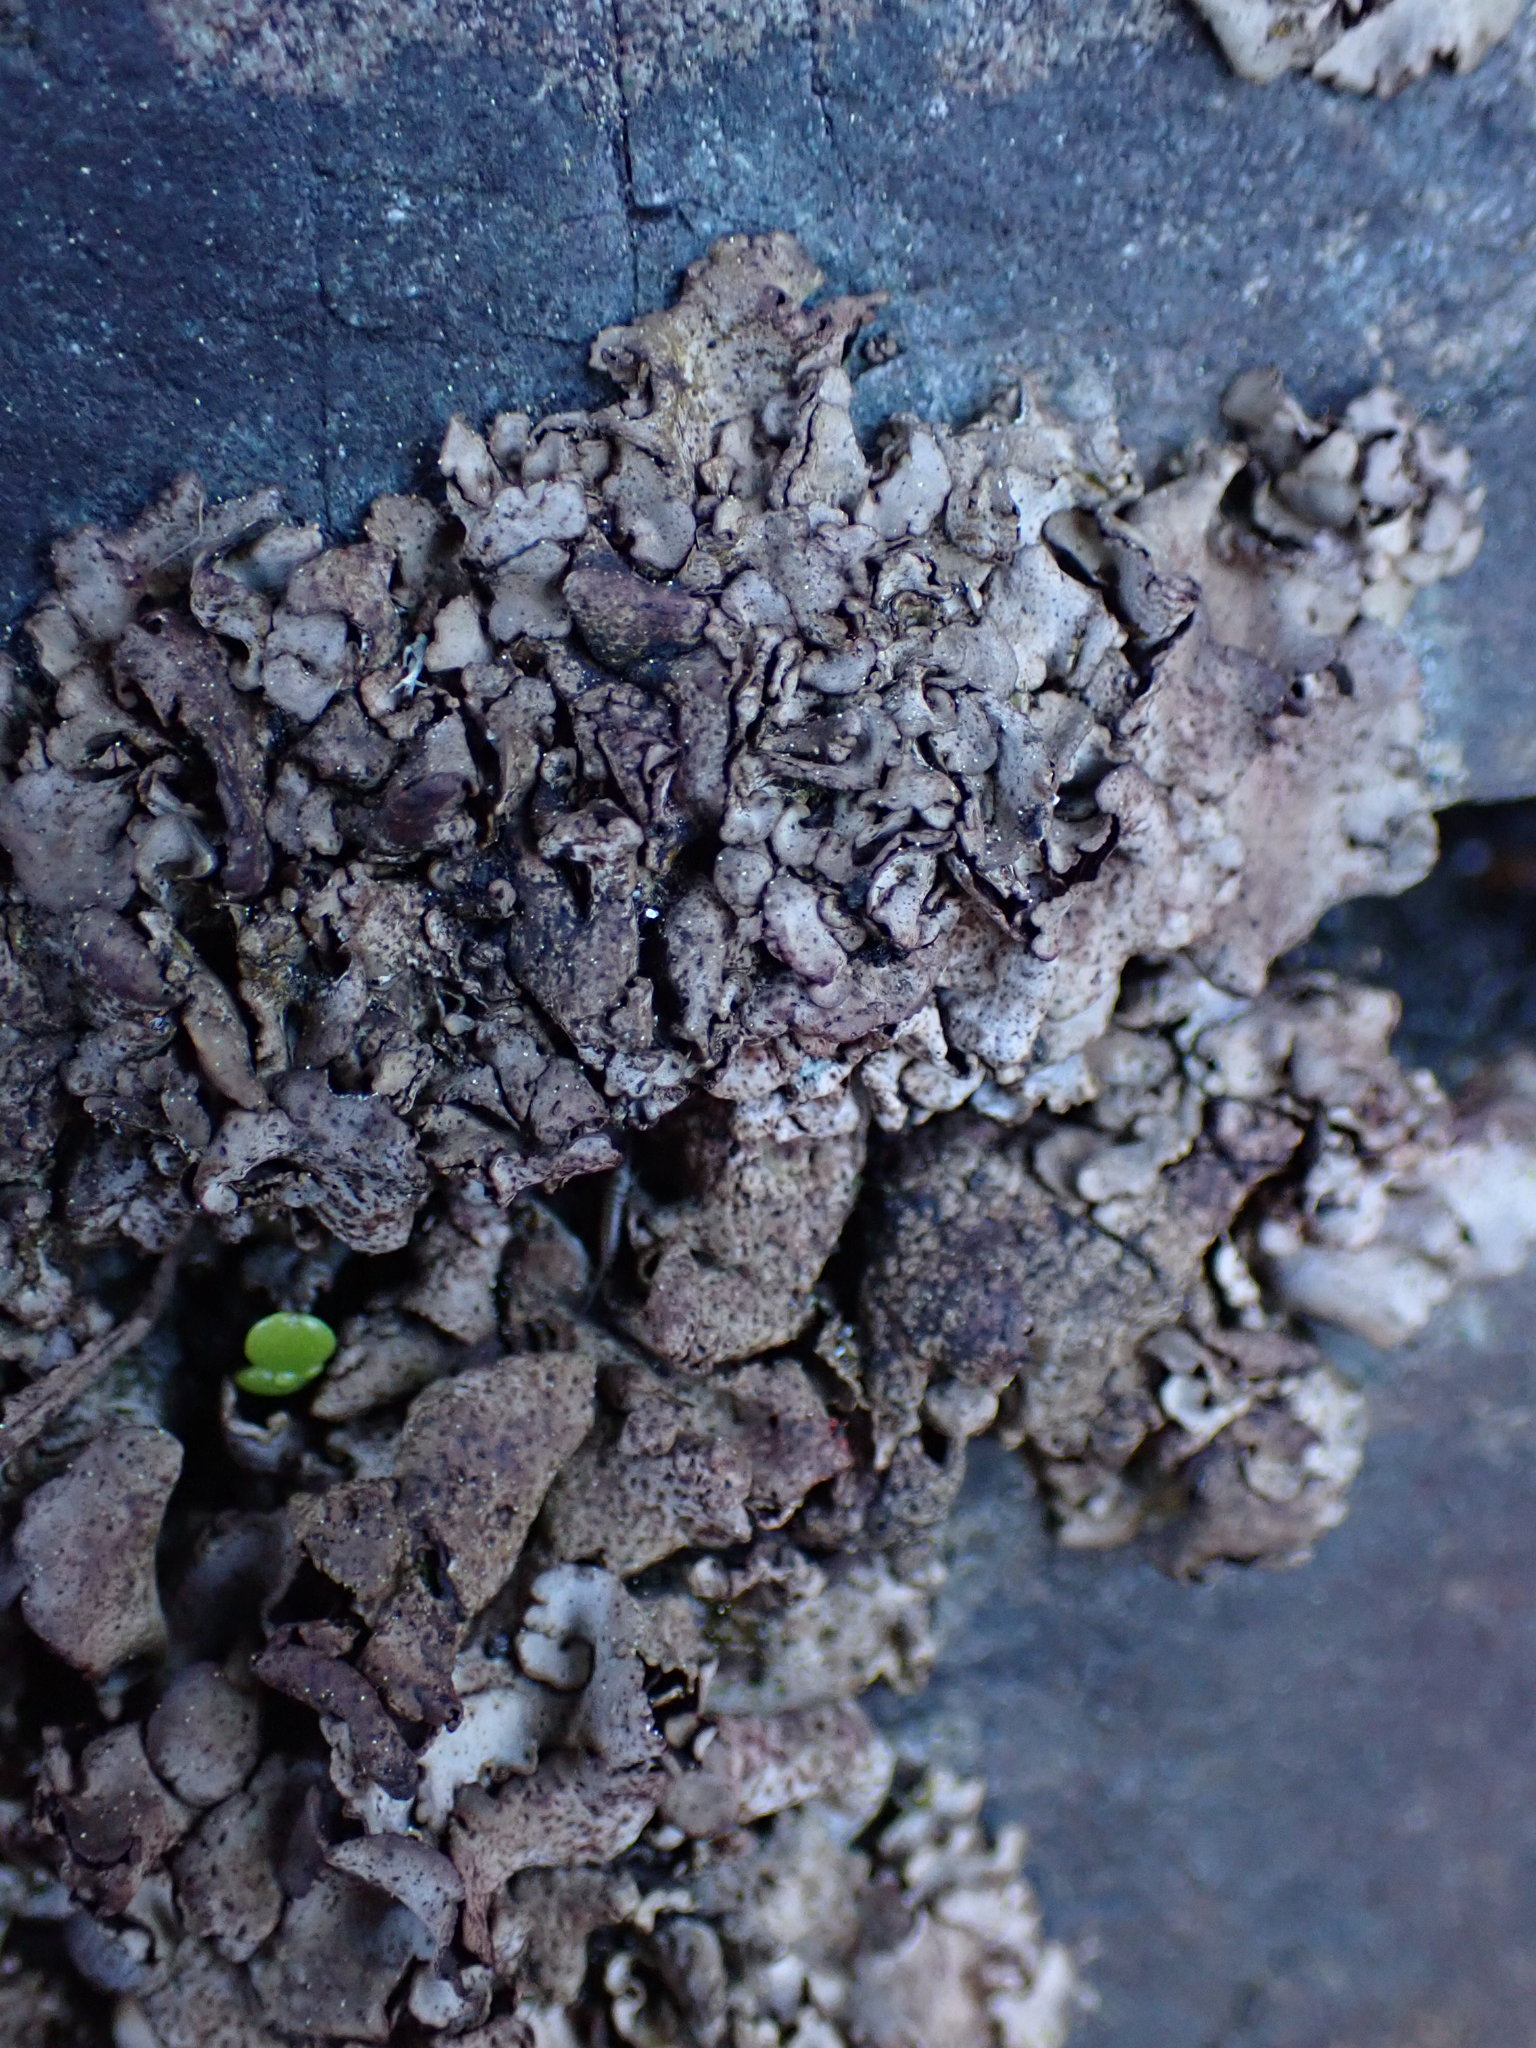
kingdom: Fungi
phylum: Ascomycota
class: Eurotiomycetes
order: Verrucariales
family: Verrucariaceae
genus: Dermatocarpon
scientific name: Dermatocarpon reticulatum
